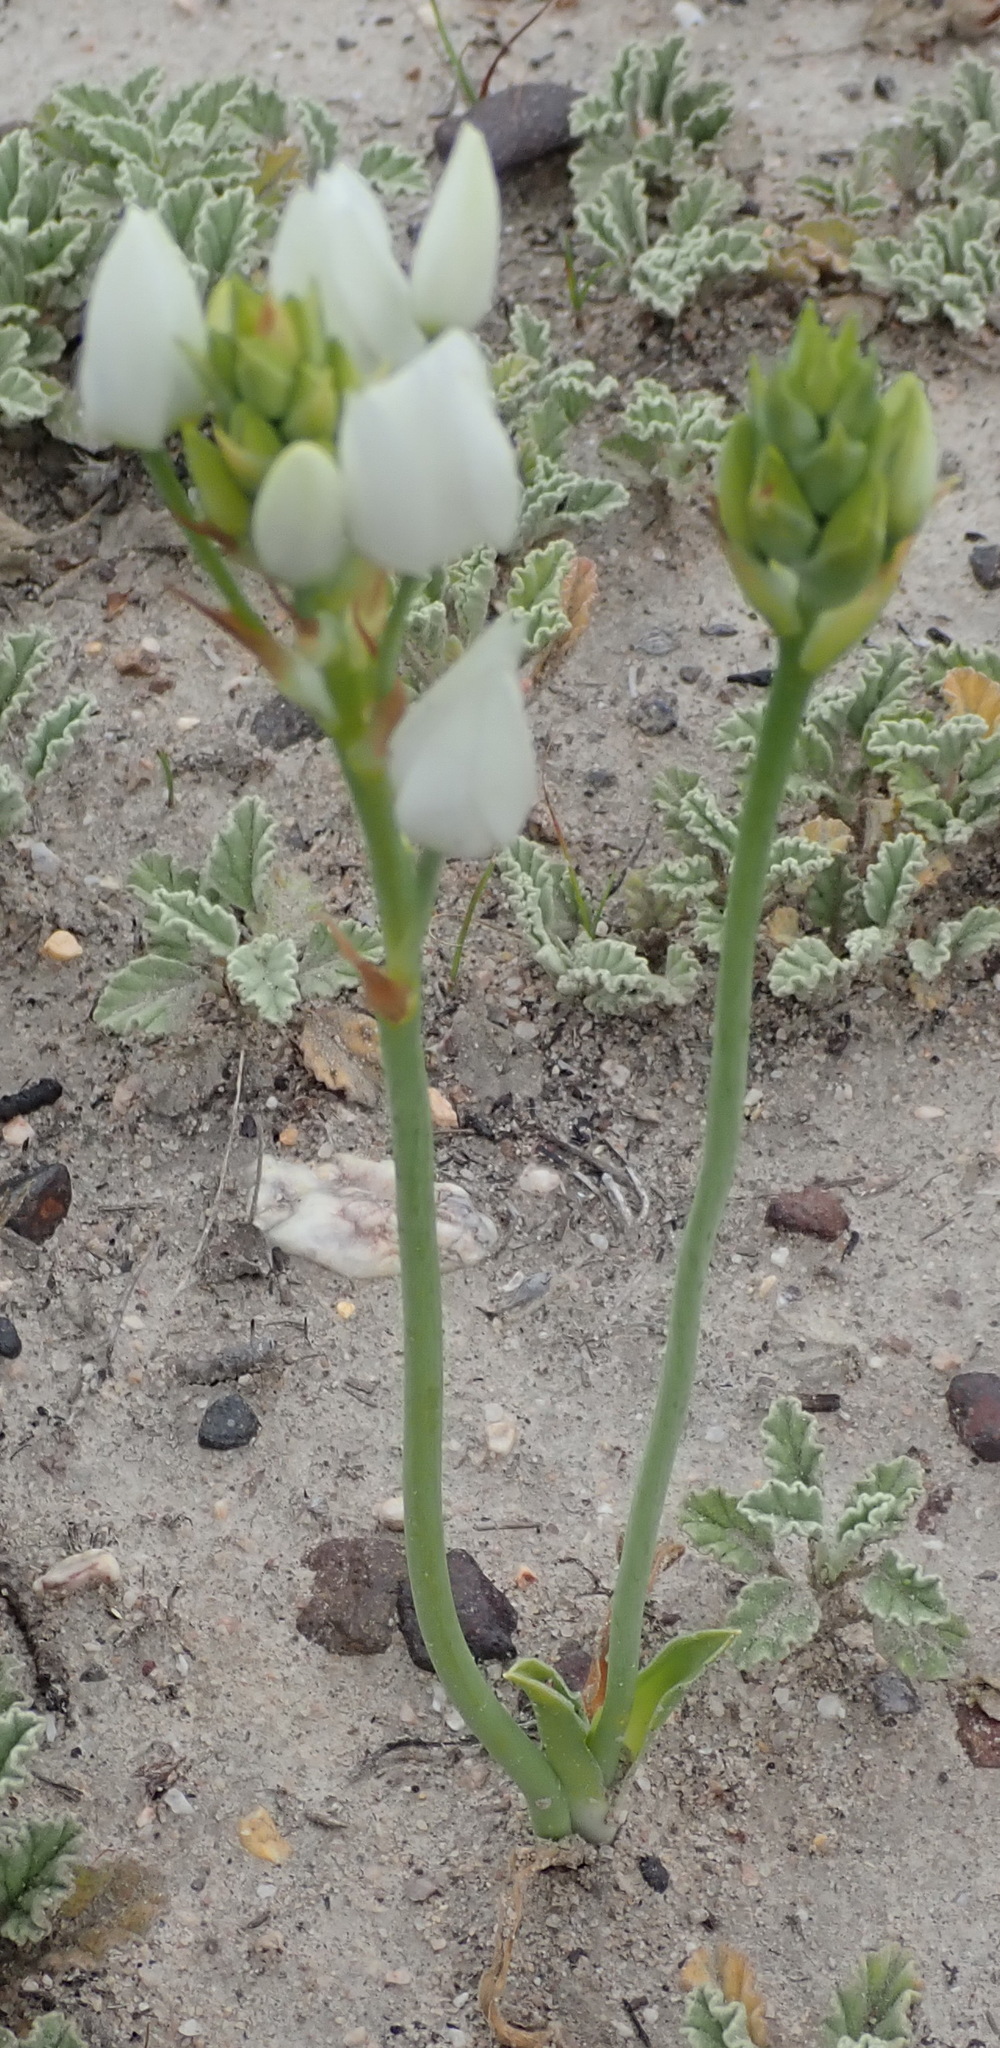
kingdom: Plantae
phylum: Tracheophyta
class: Liliopsida
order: Asparagales
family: Asparagaceae
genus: Ornithogalum
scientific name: Ornithogalum dubium
